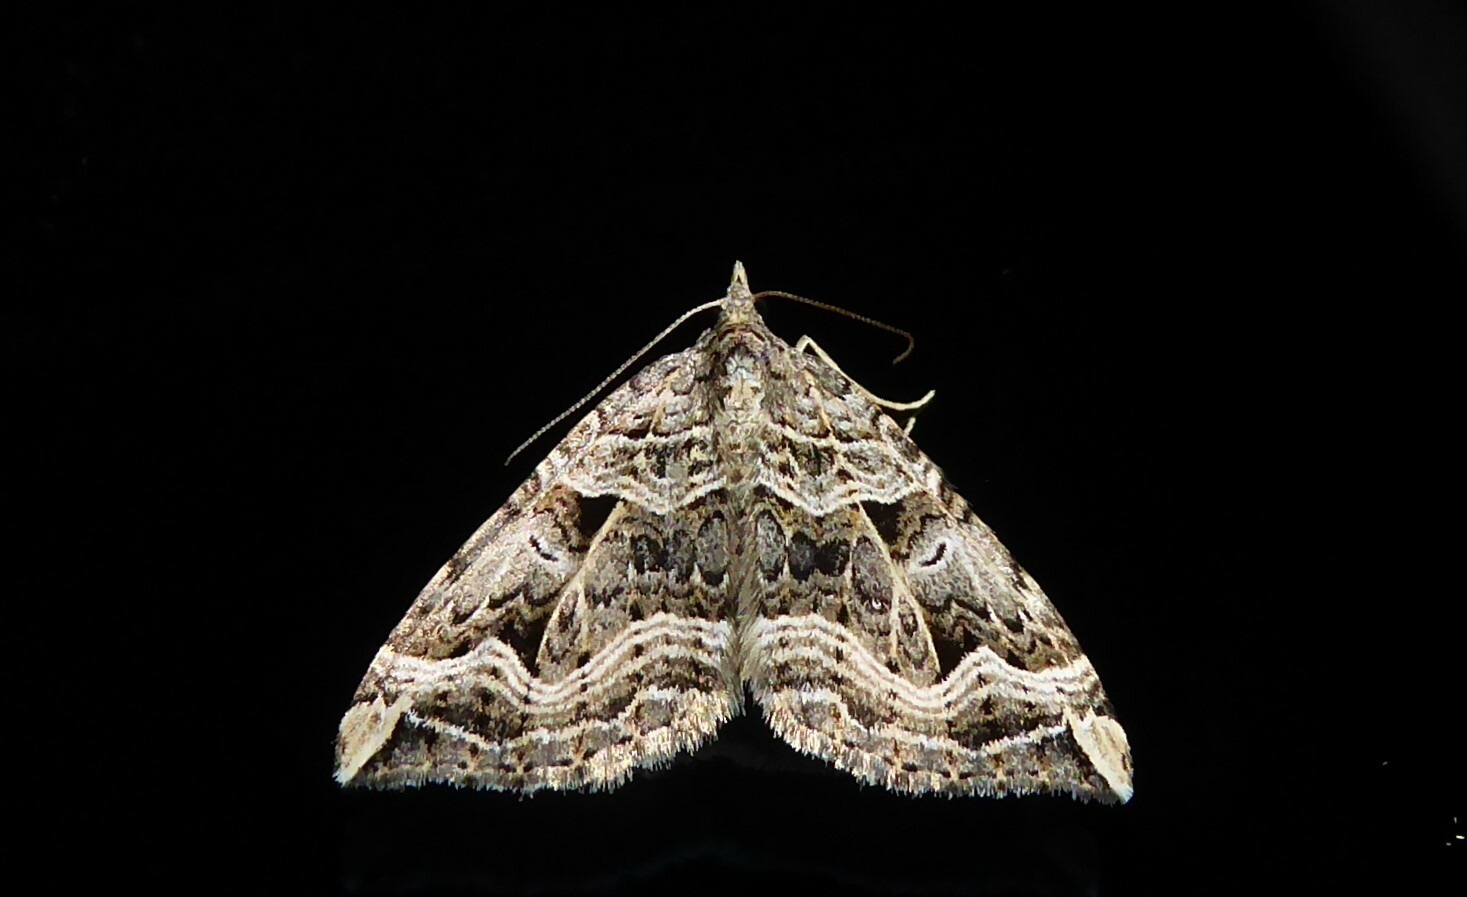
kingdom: Animalia
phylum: Arthropoda
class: Insecta
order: Lepidoptera
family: Geometridae
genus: Xanthorhoe
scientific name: Xanthorhoe semifissata
